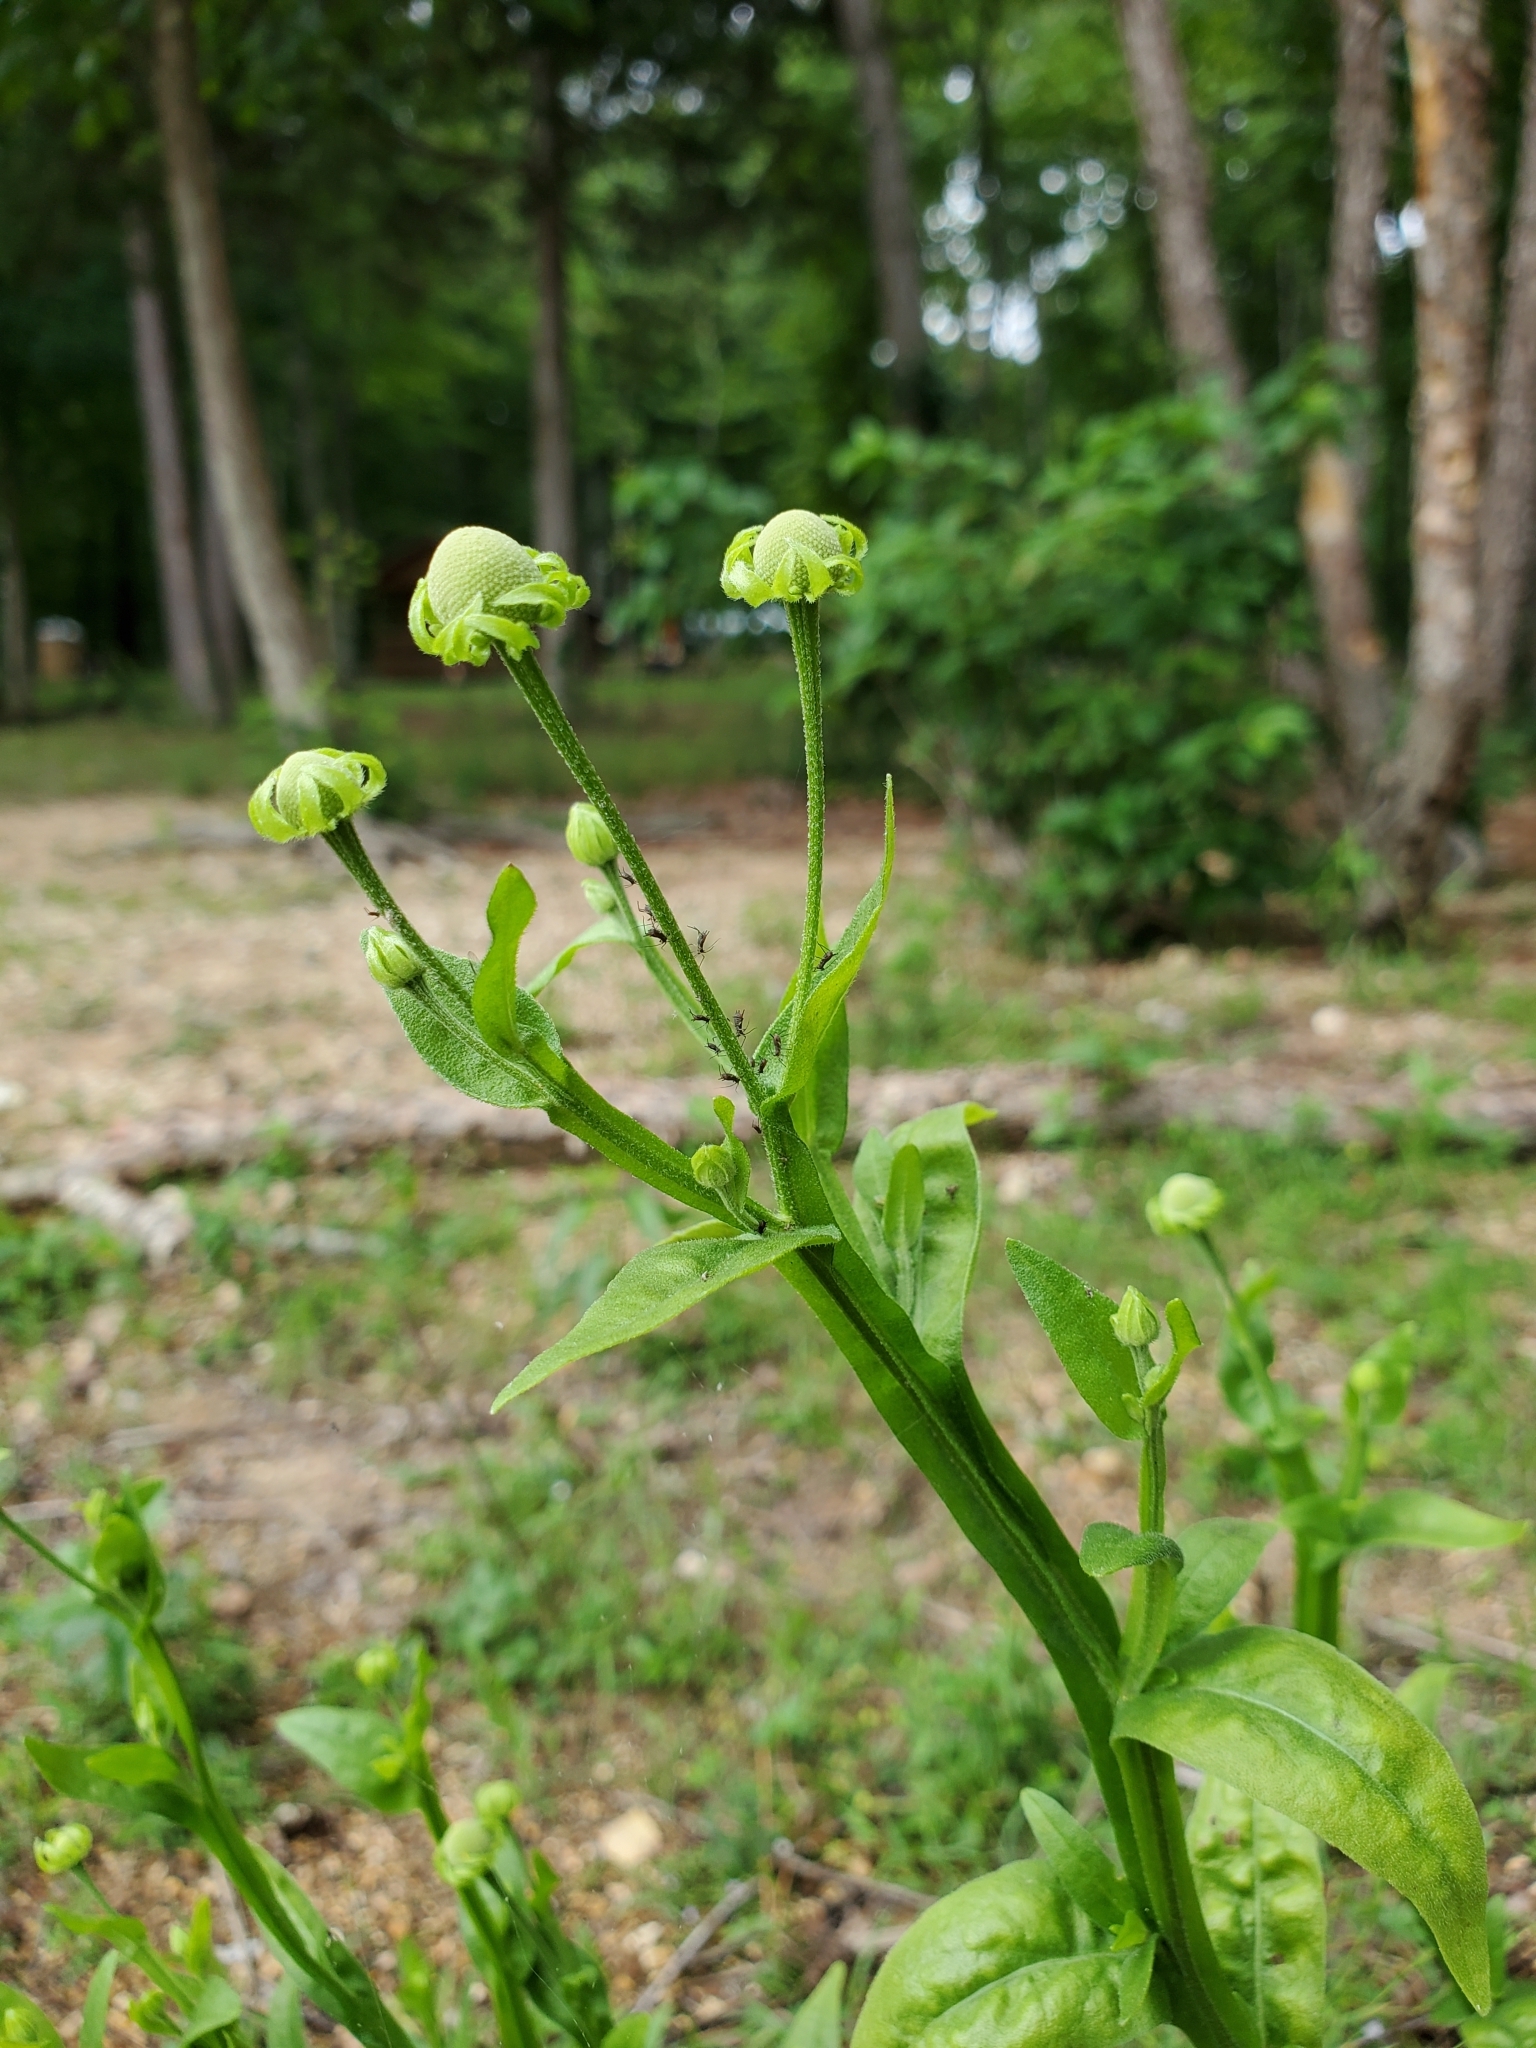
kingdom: Plantae
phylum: Tracheophyta
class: Magnoliopsida
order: Asterales
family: Asteraceae
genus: Helenium
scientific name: Helenium flexuosum
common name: Naked-flowered sneezeweed
